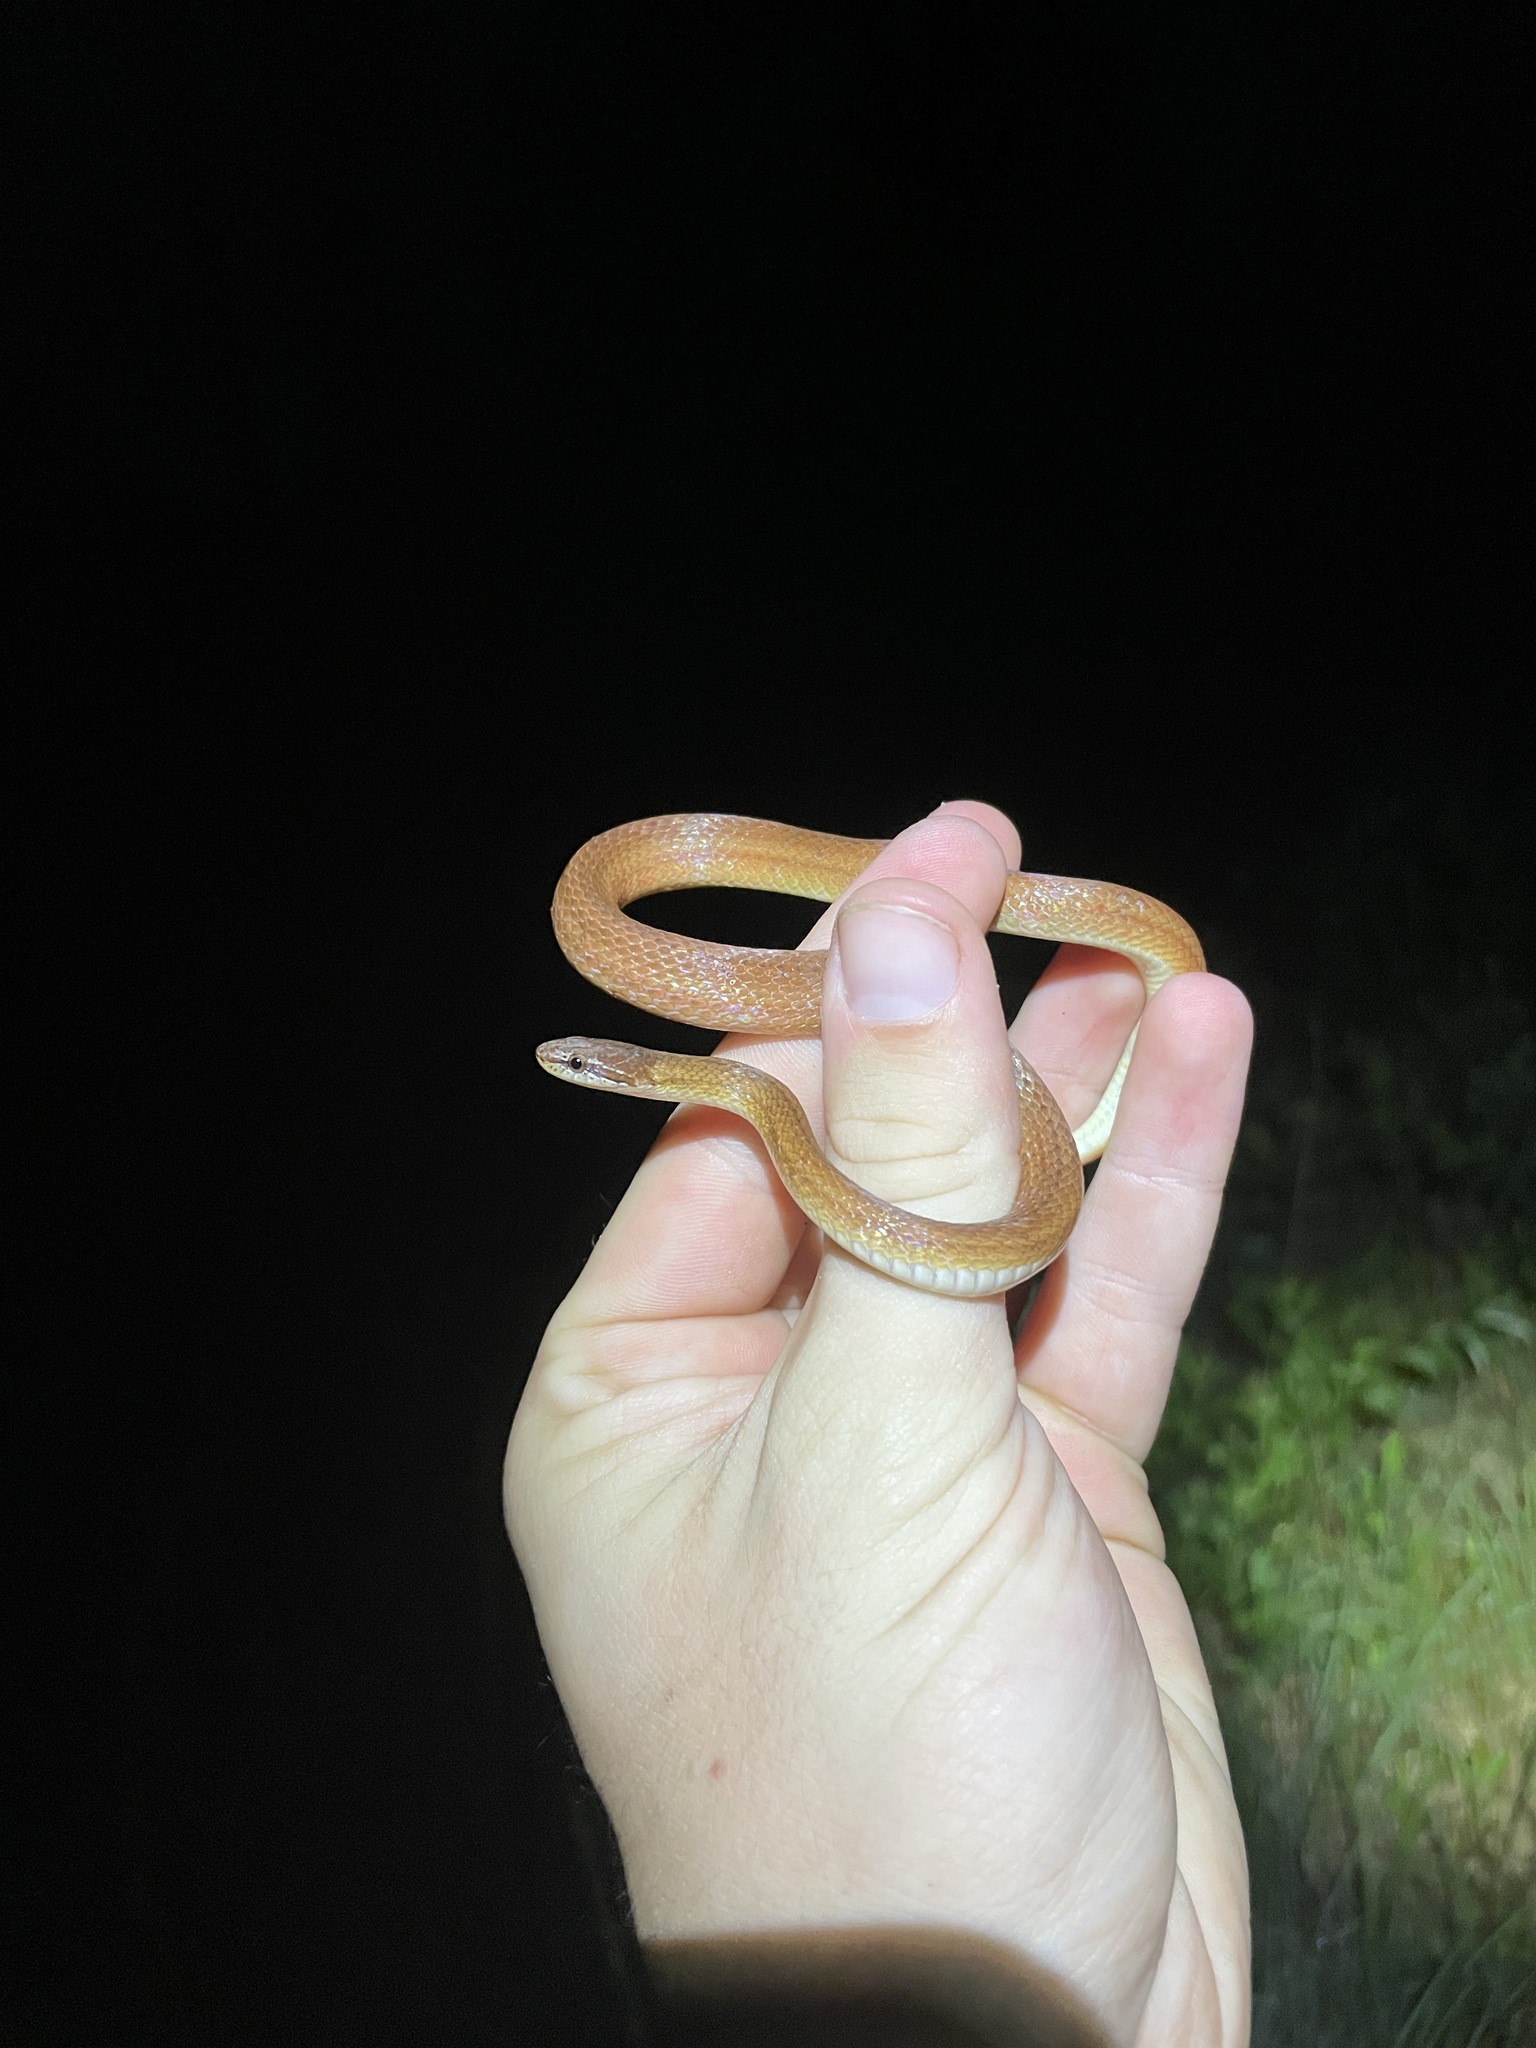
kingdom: Animalia
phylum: Chordata
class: Squamata
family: Colubridae
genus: Rhadinaea
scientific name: Rhadinaea flavilata
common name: Pine woods littersnake
